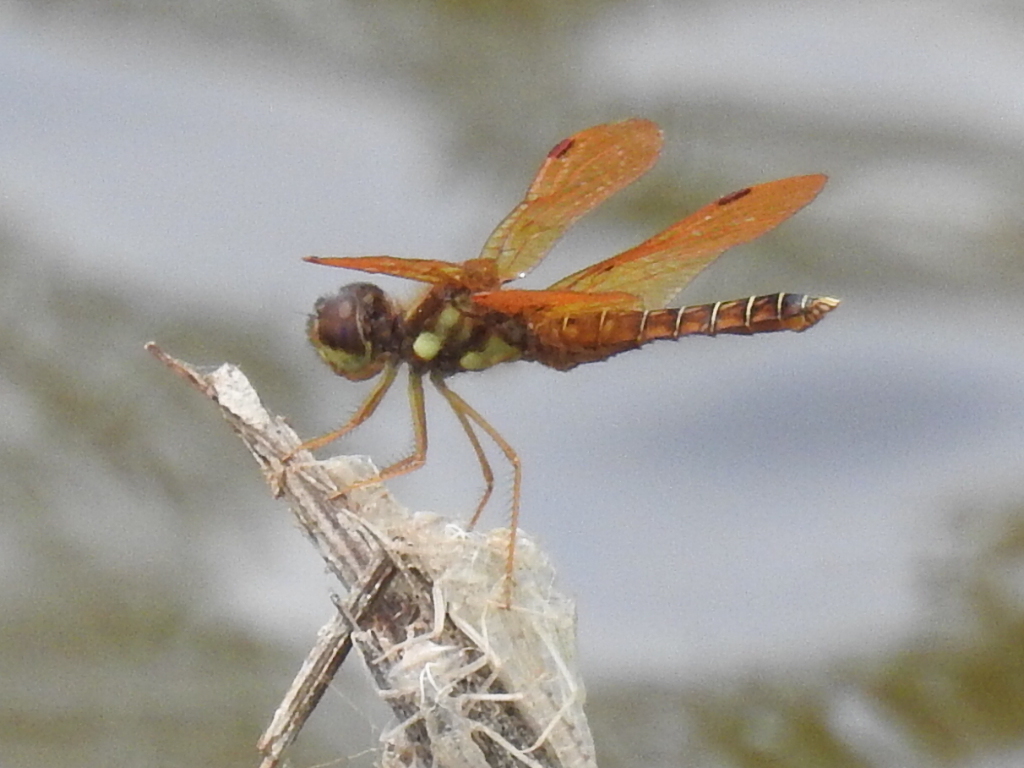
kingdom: Animalia
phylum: Arthropoda
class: Insecta
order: Odonata
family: Libellulidae
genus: Perithemis
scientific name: Perithemis tenera
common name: Eastern amberwing
